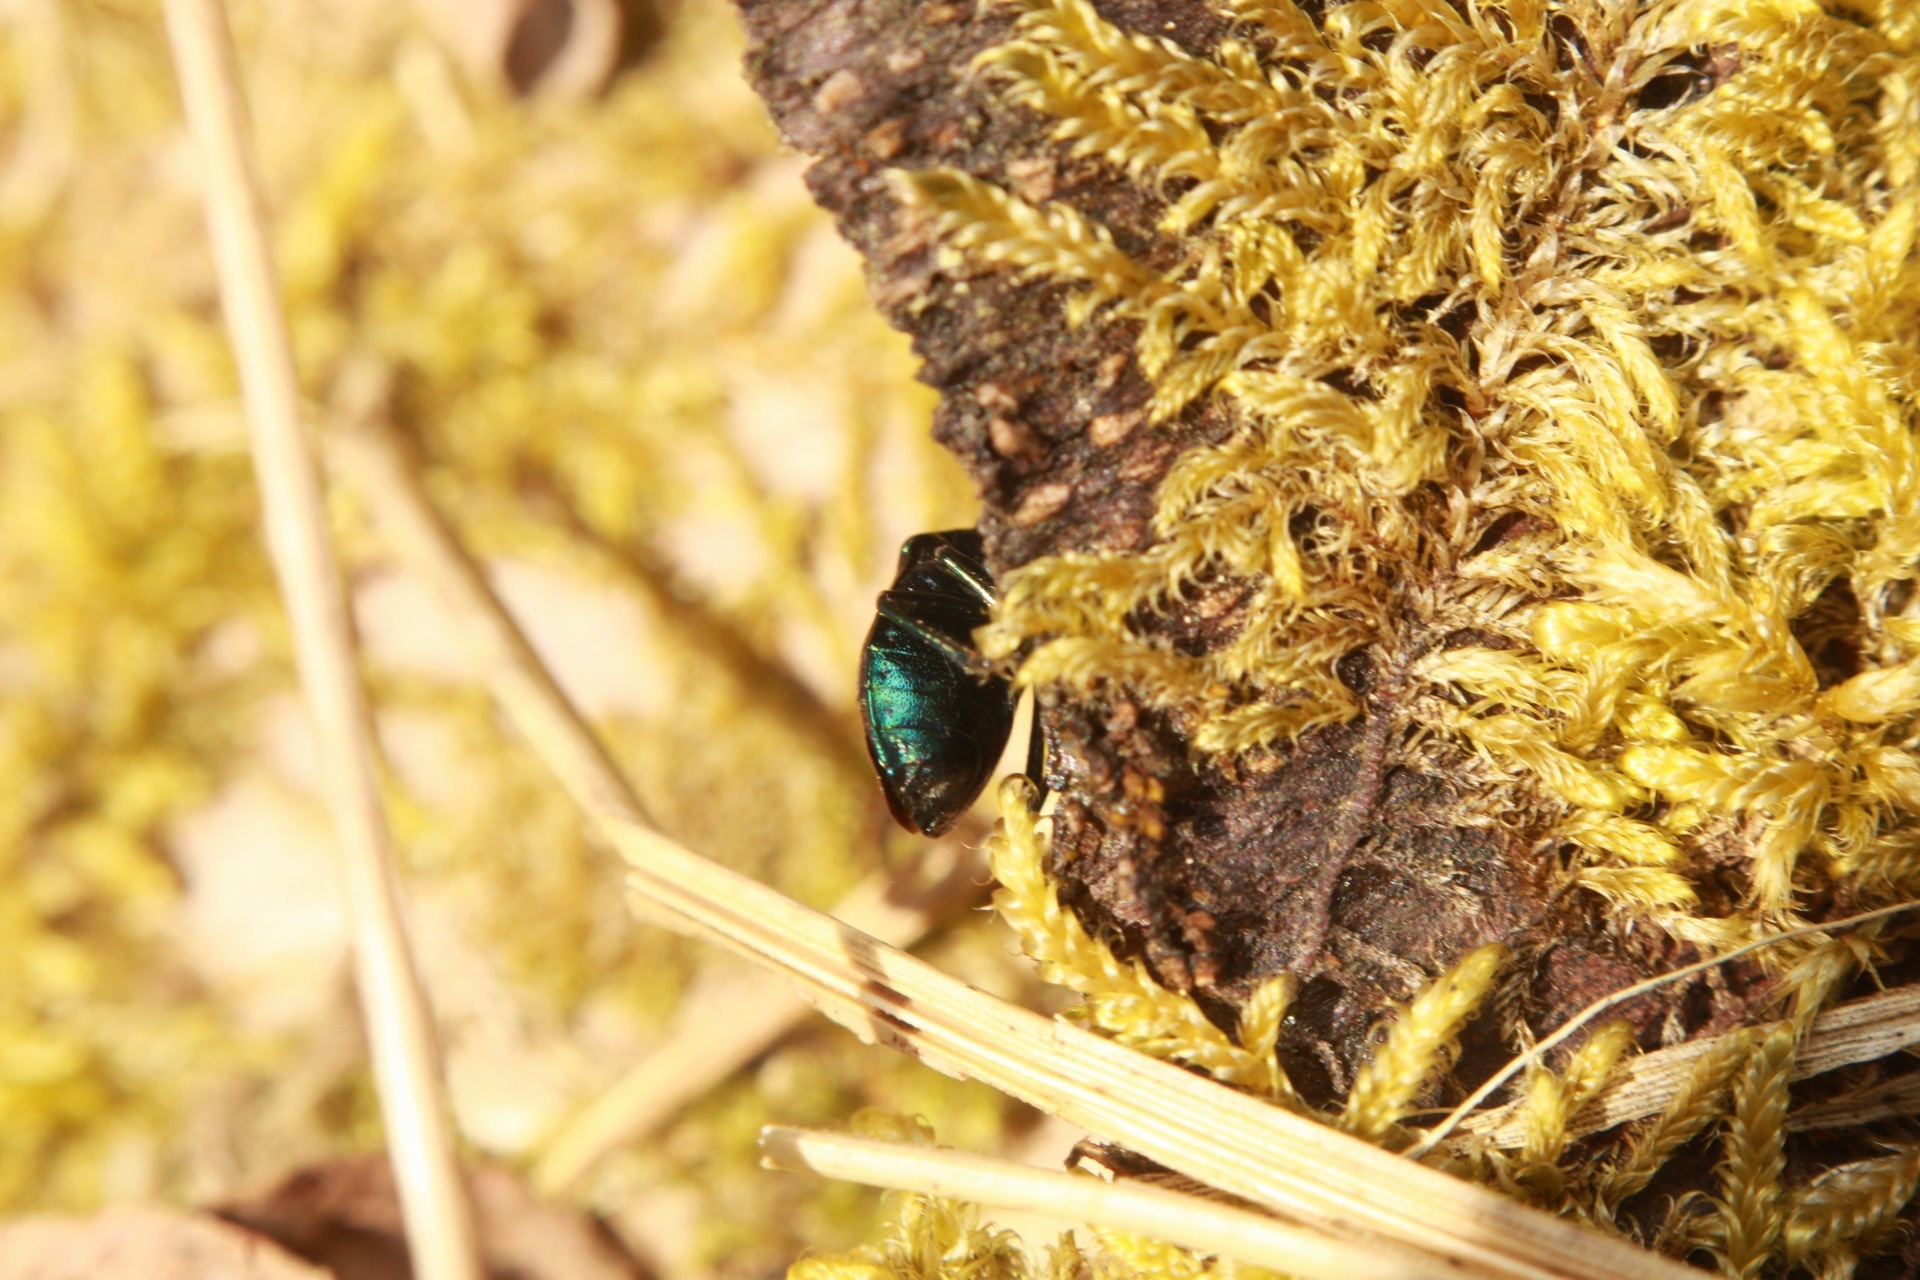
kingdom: Animalia
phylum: Arthropoda
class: Insecta
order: Hemiptera
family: Pentatomidae
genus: Zicrona
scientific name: Zicrona caerulea
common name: Blue shieldbug
